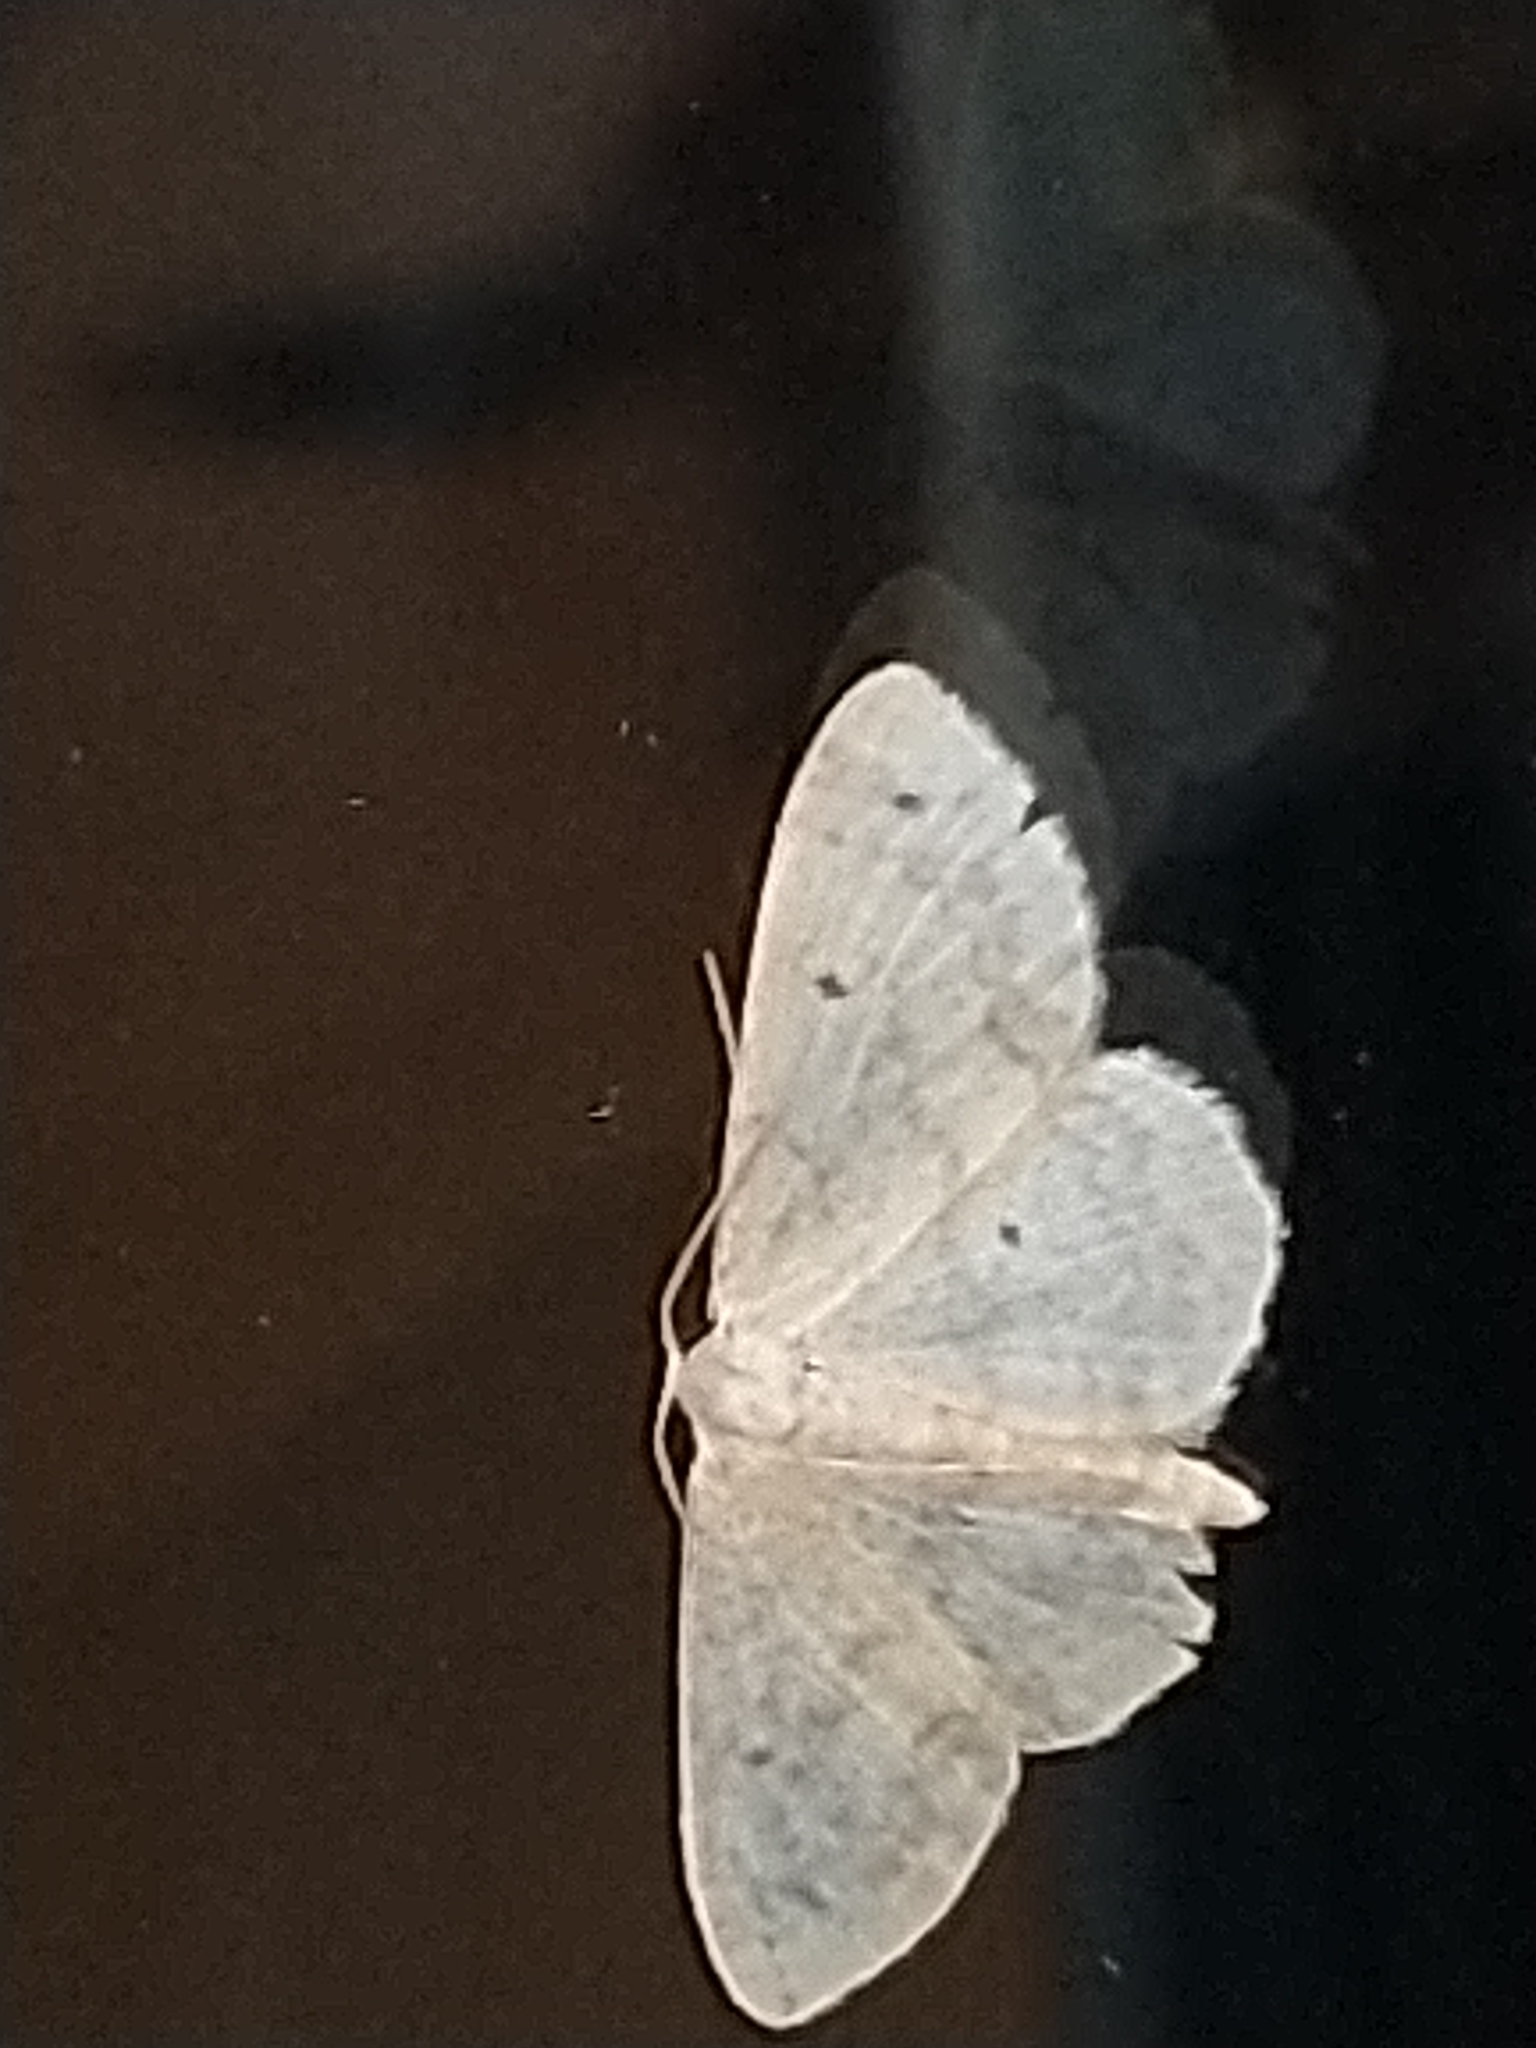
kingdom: Animalia
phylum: Arthropoda
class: Insecta
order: Lepidoptera
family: Geometridae
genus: Idaea
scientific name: Idaea biselata
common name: Small fan-footed wave
